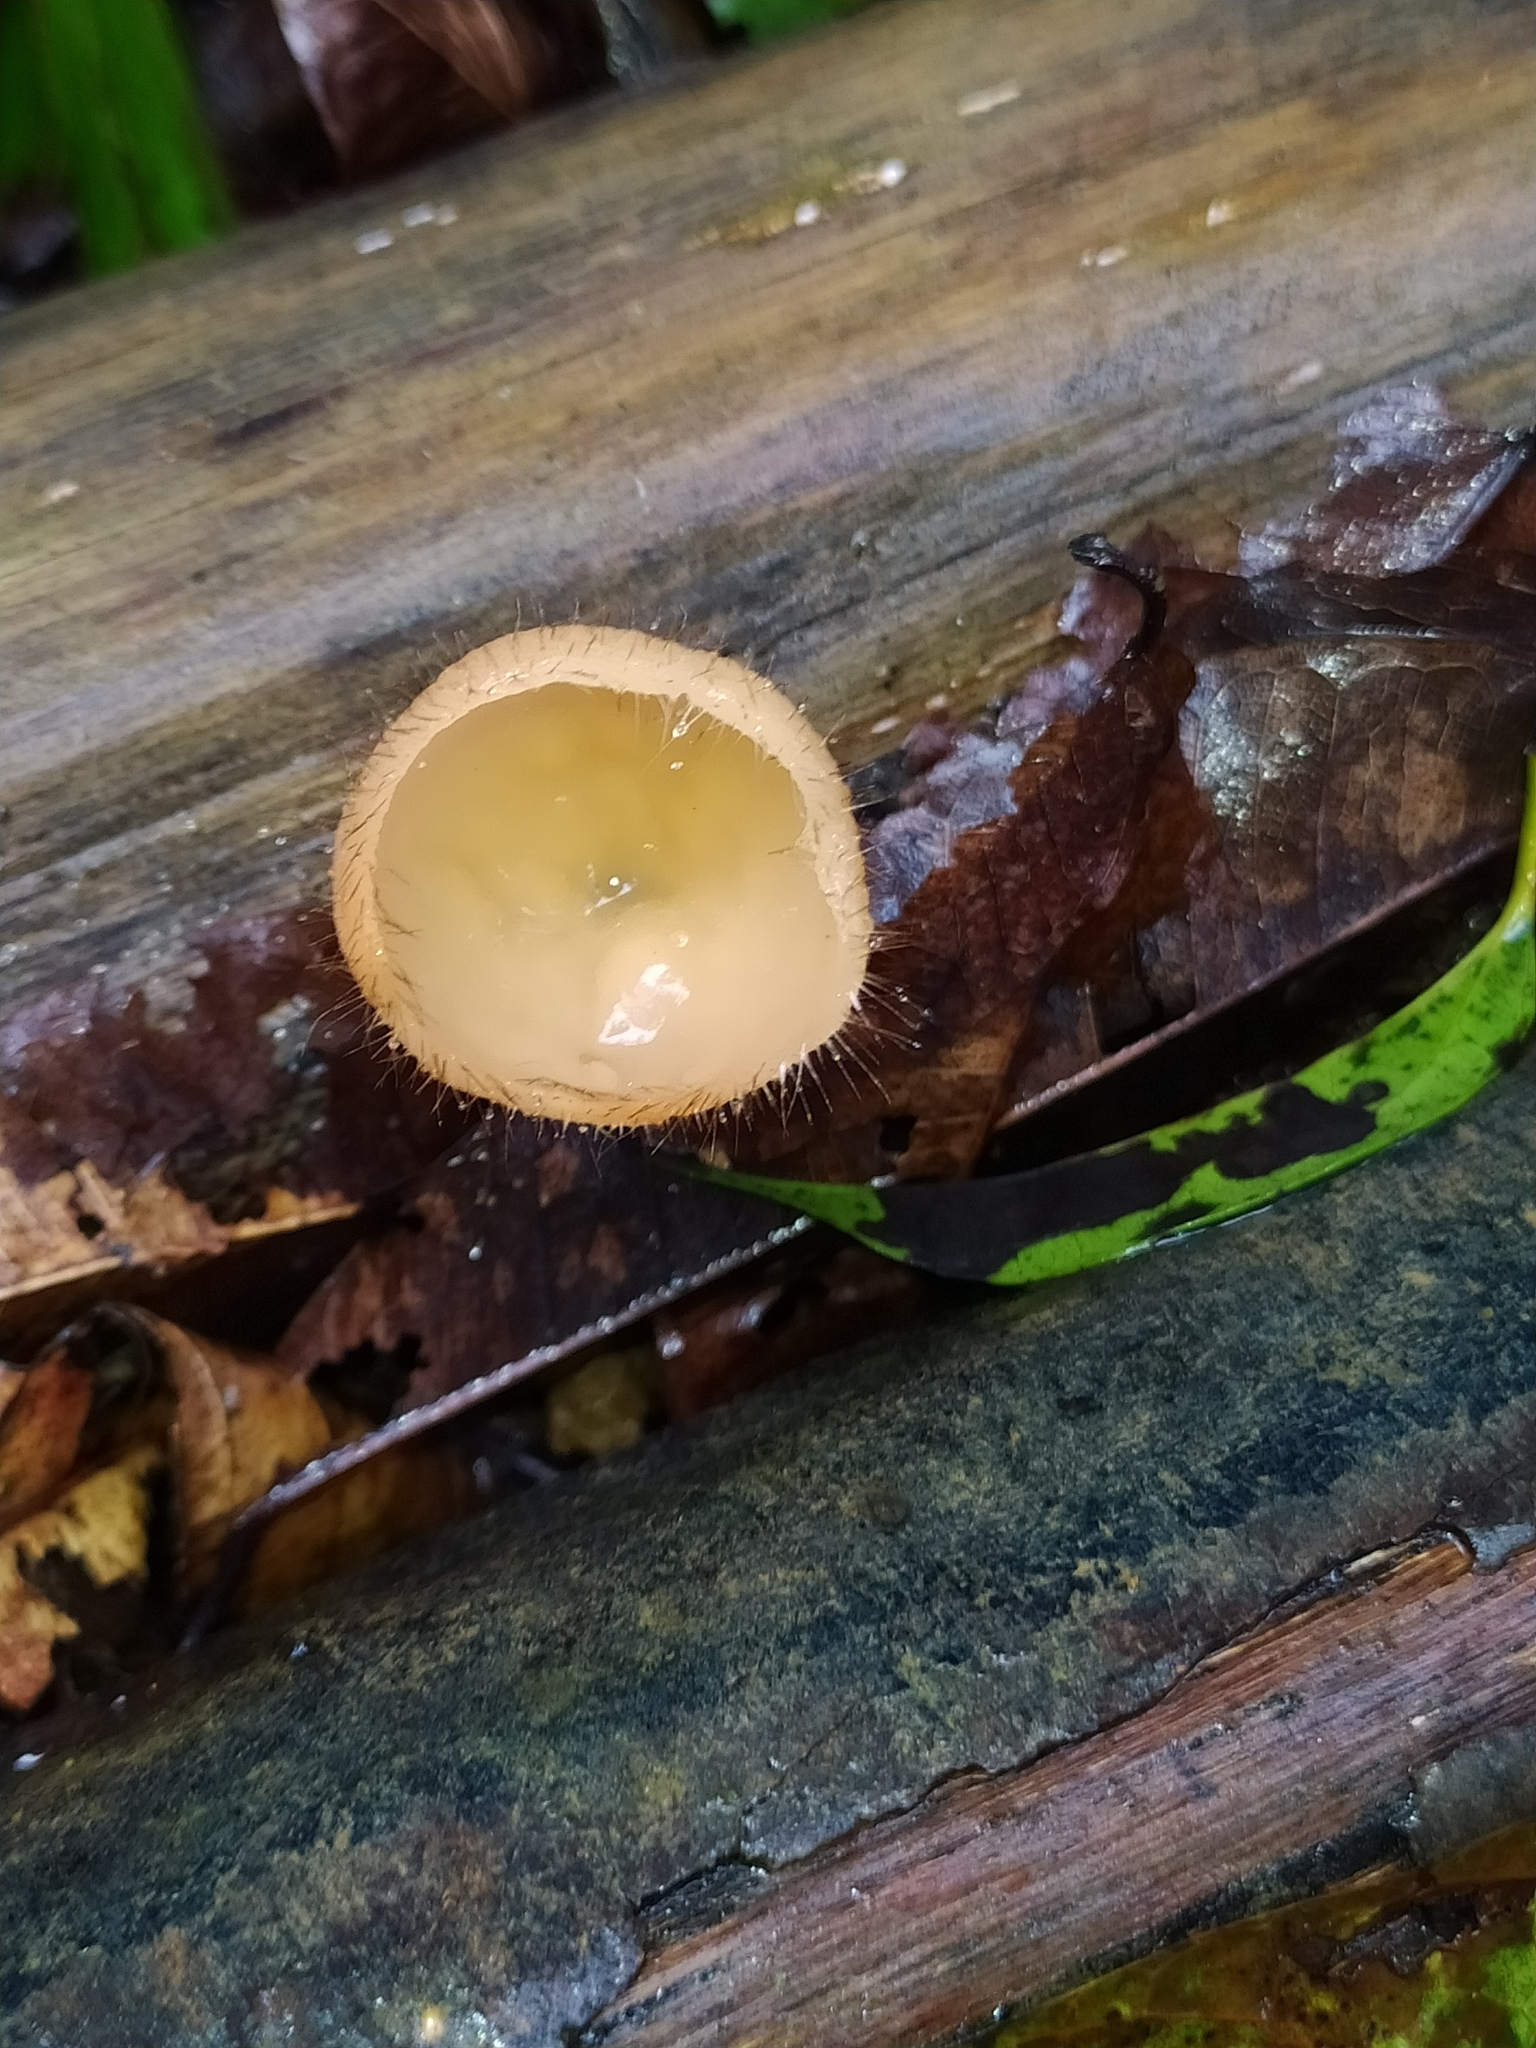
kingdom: Fungi
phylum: Ascomycota
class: Pezizomycetes
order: Pezizales
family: Sarcoscyphaceae
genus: Cookeina
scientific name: Cookeina tricholoma
